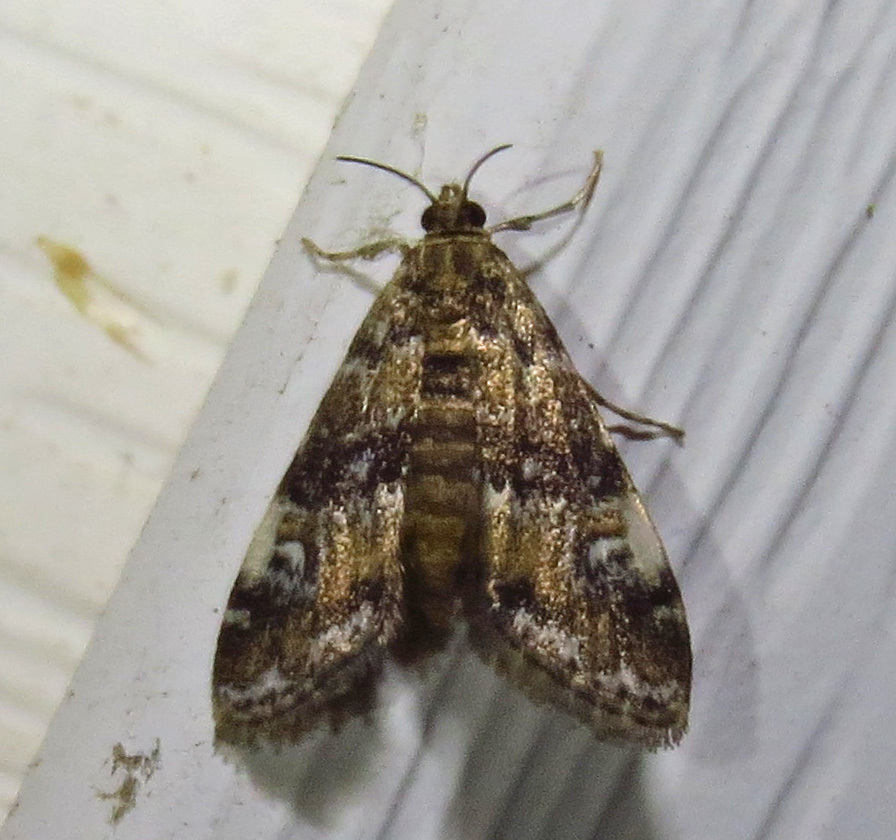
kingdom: Animalia
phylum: Arthropoda
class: Insecta
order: Lepidoptera
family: Crambidae
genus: Elophila
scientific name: Elophila obliteralis
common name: Waterlily leafcutter moth
